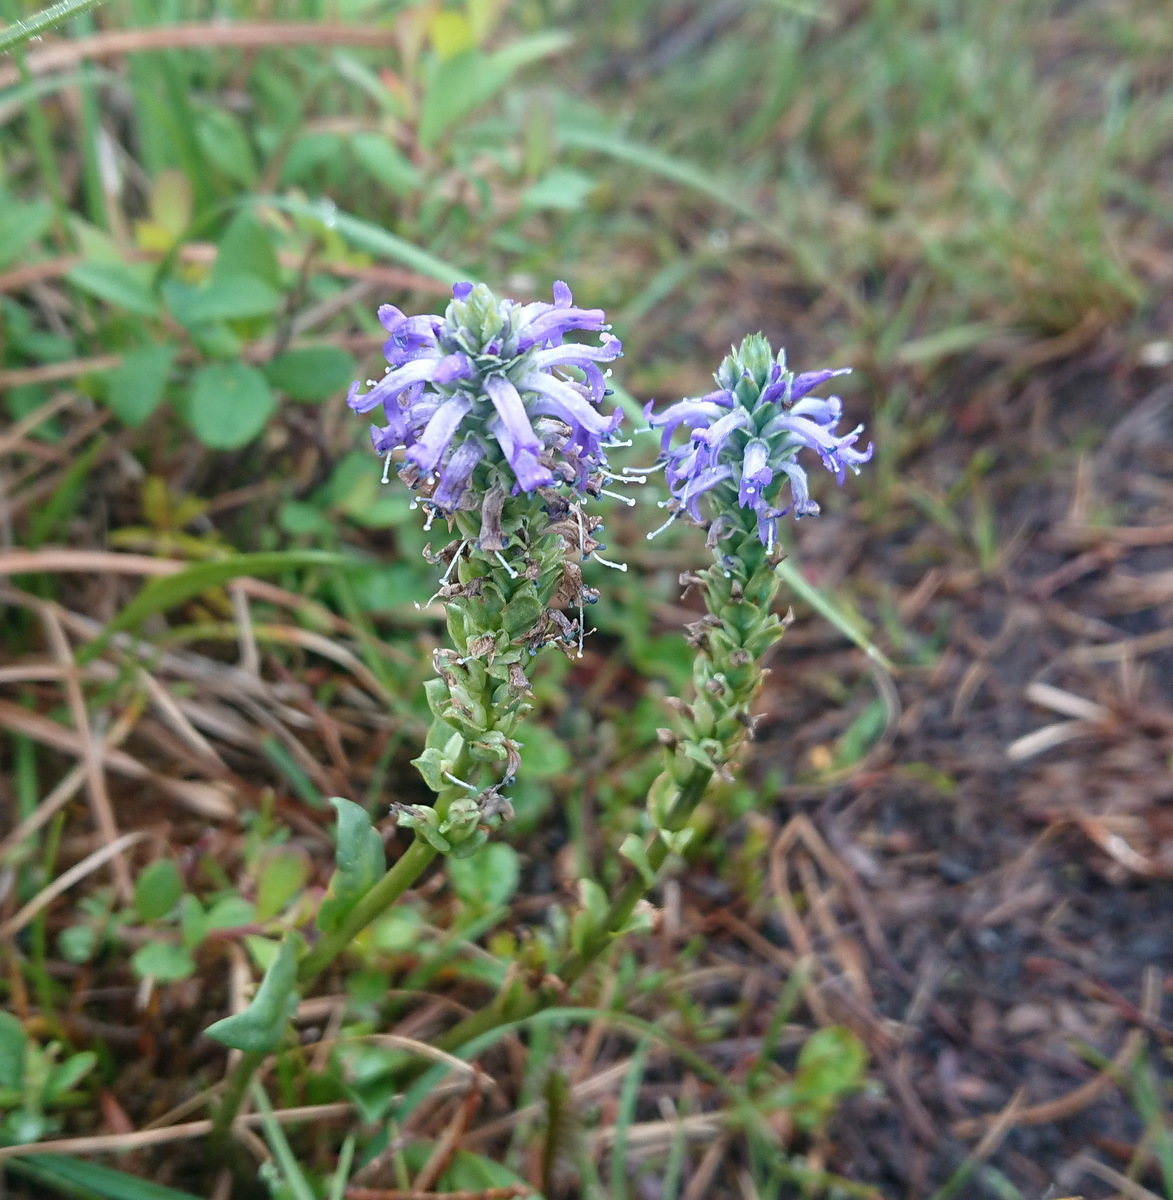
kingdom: Plantae
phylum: Tracheophyta
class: Magnoliopsida
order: Lamiales
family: Plantaginaceae
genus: Lagotis
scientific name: Lagotis glauca
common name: Glaucous weaselsnout
